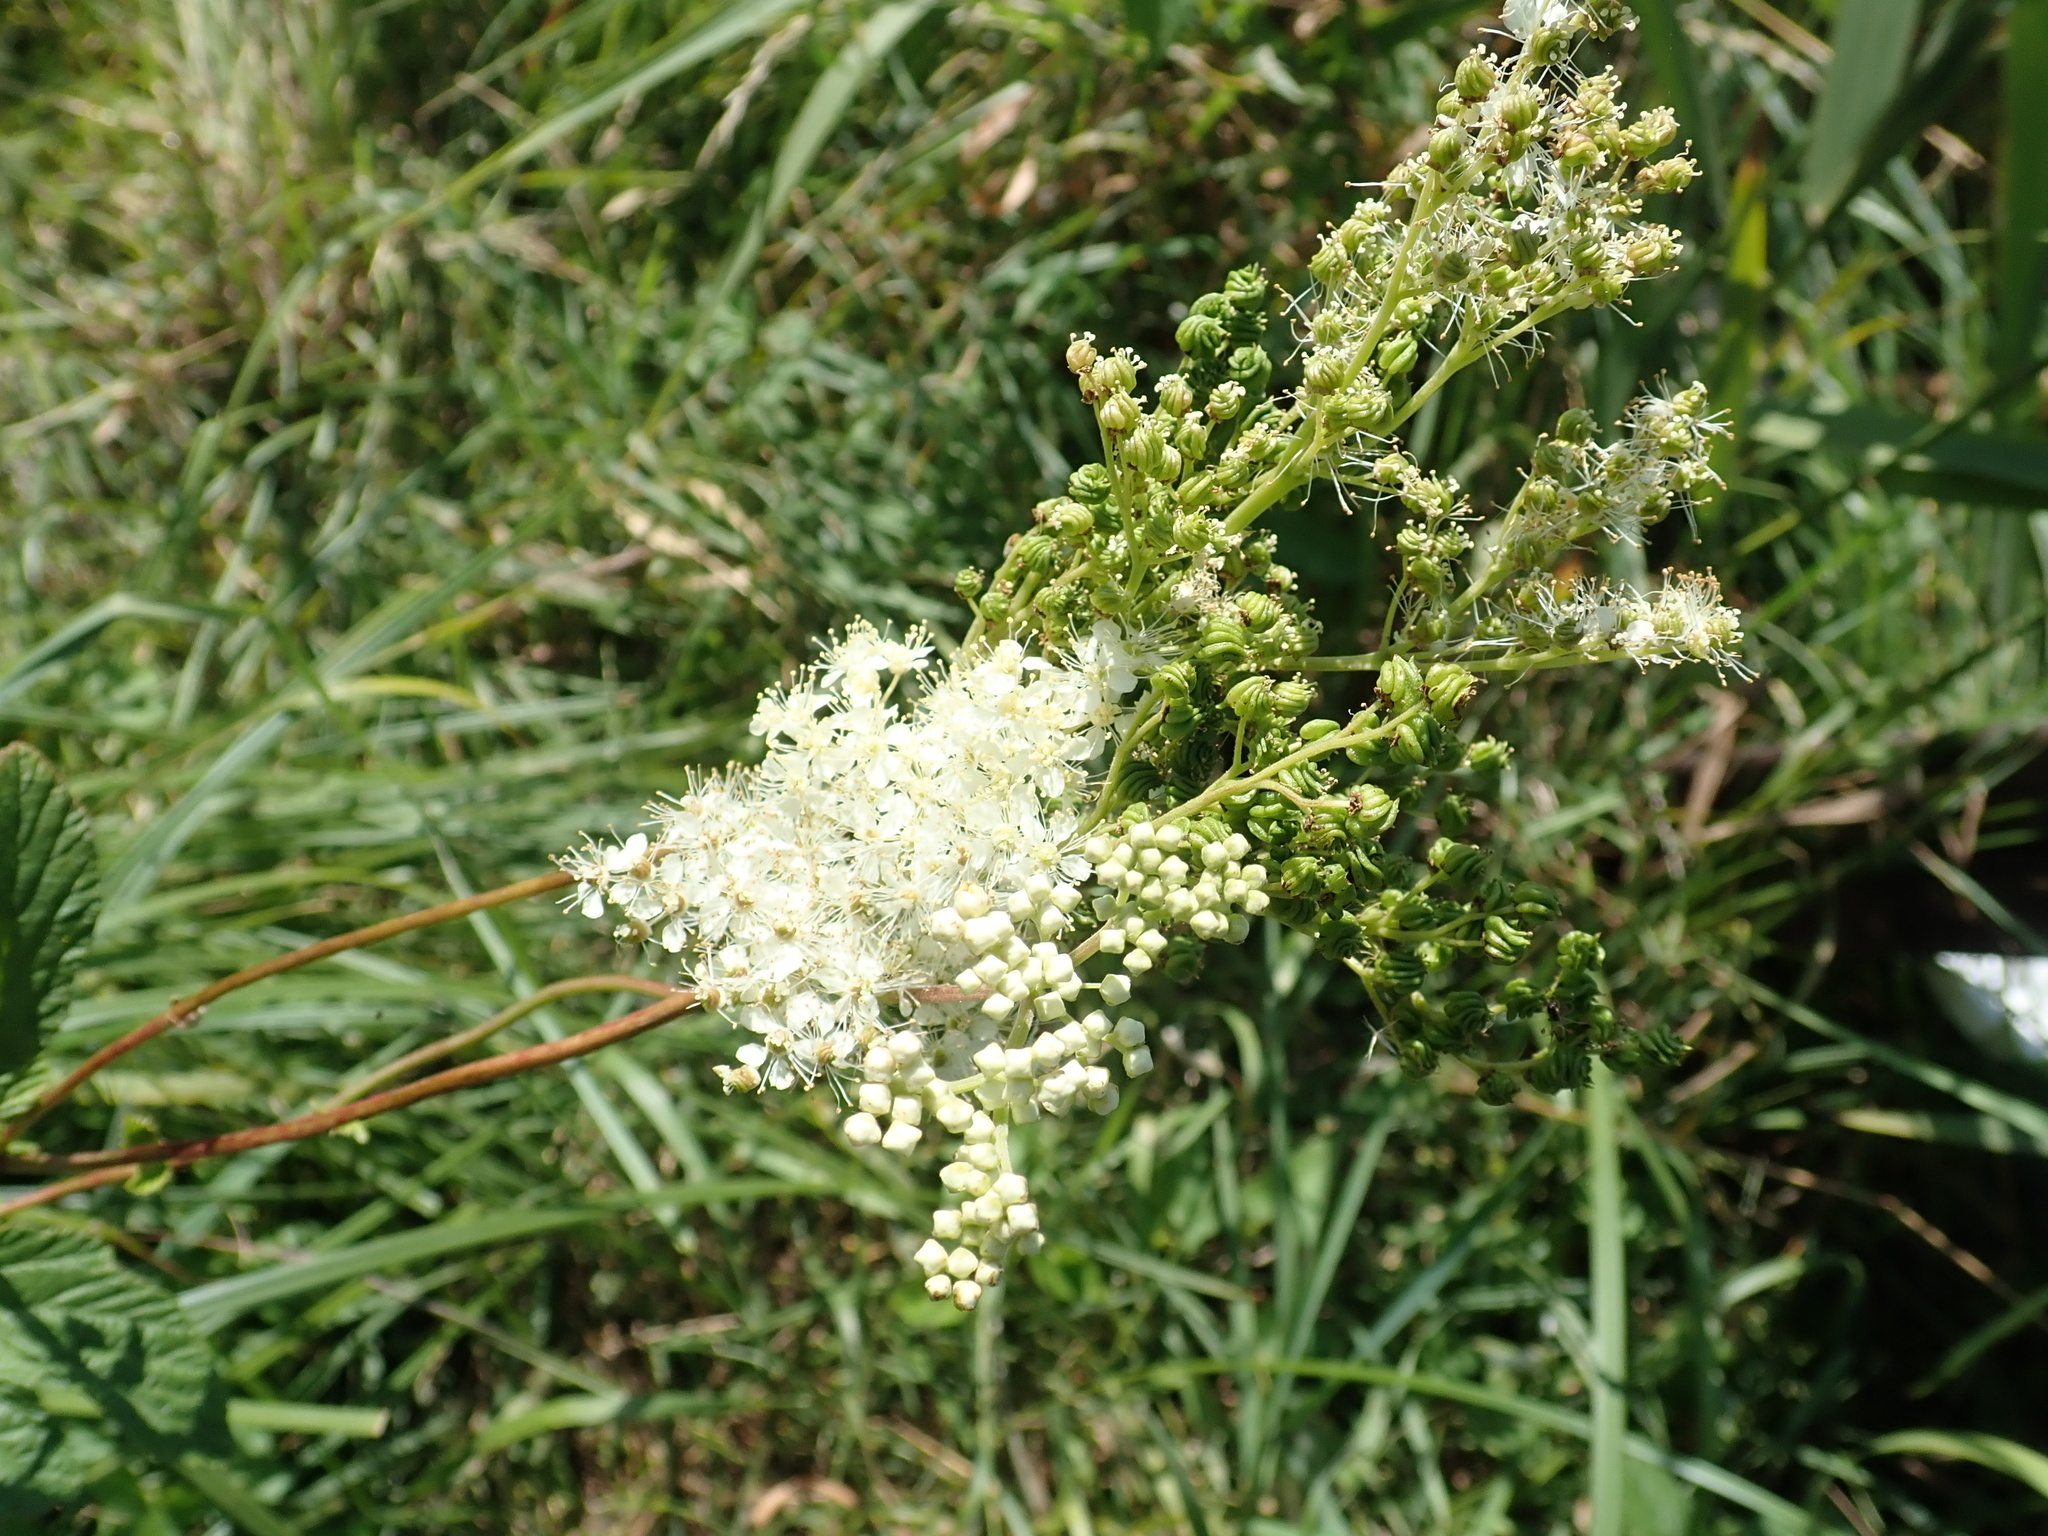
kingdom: Plantae
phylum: Tracheophyta
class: Magnoliopsida
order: Rosales
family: Rosaceae
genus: Filipendula
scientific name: Filipendula ulmaria
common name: Meadowsweet
